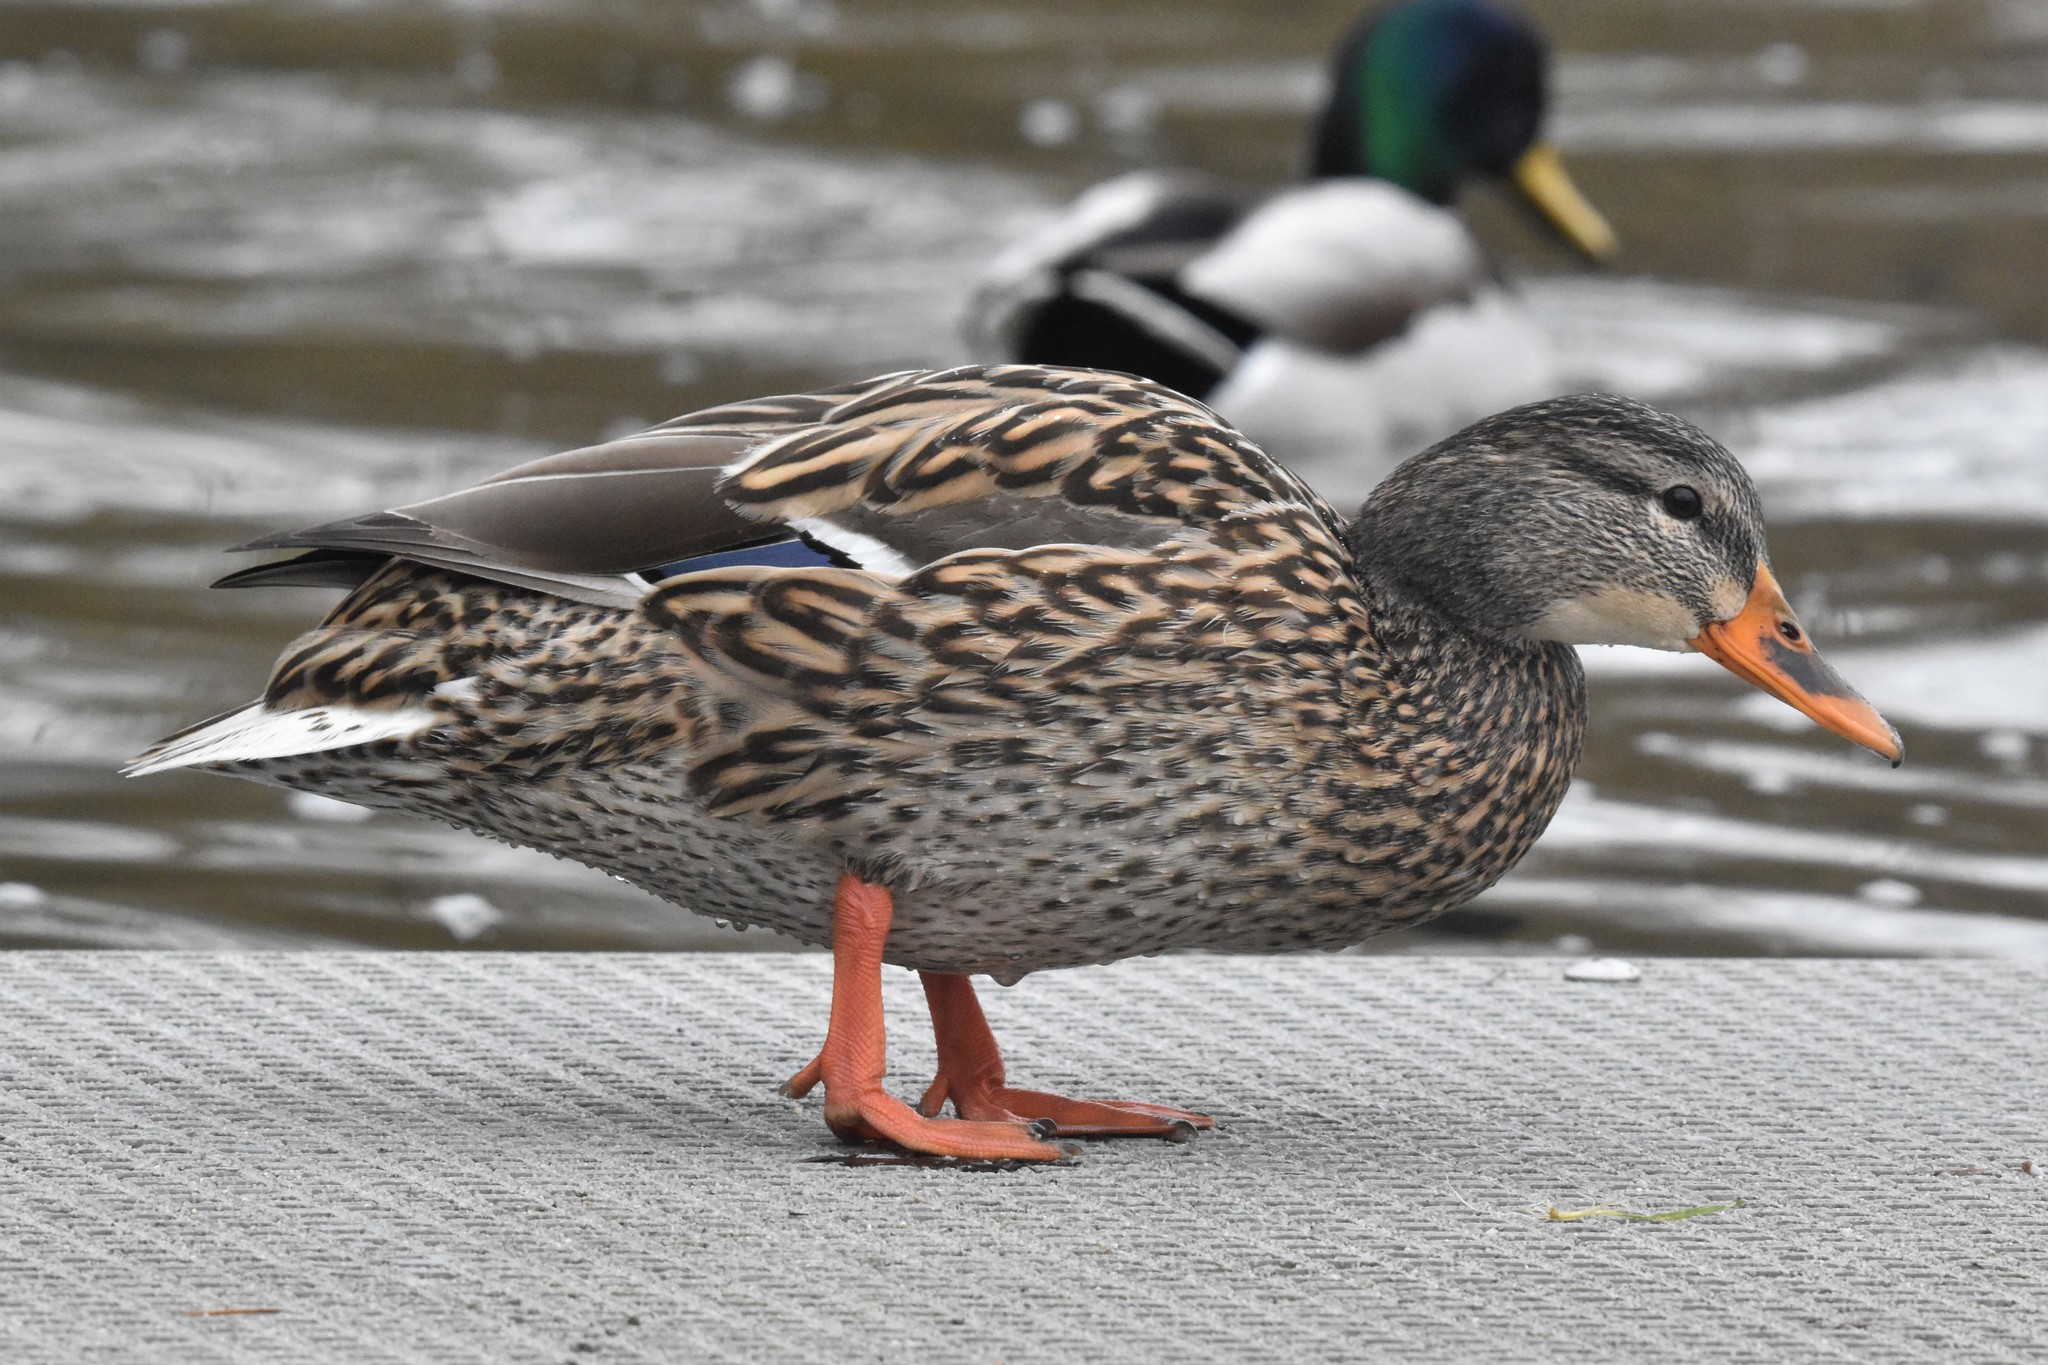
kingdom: Animalia
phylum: Chordata
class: Aves
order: Anseriformes
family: Anatidae
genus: Anas
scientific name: Anas platyrhynchos
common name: Mallard
